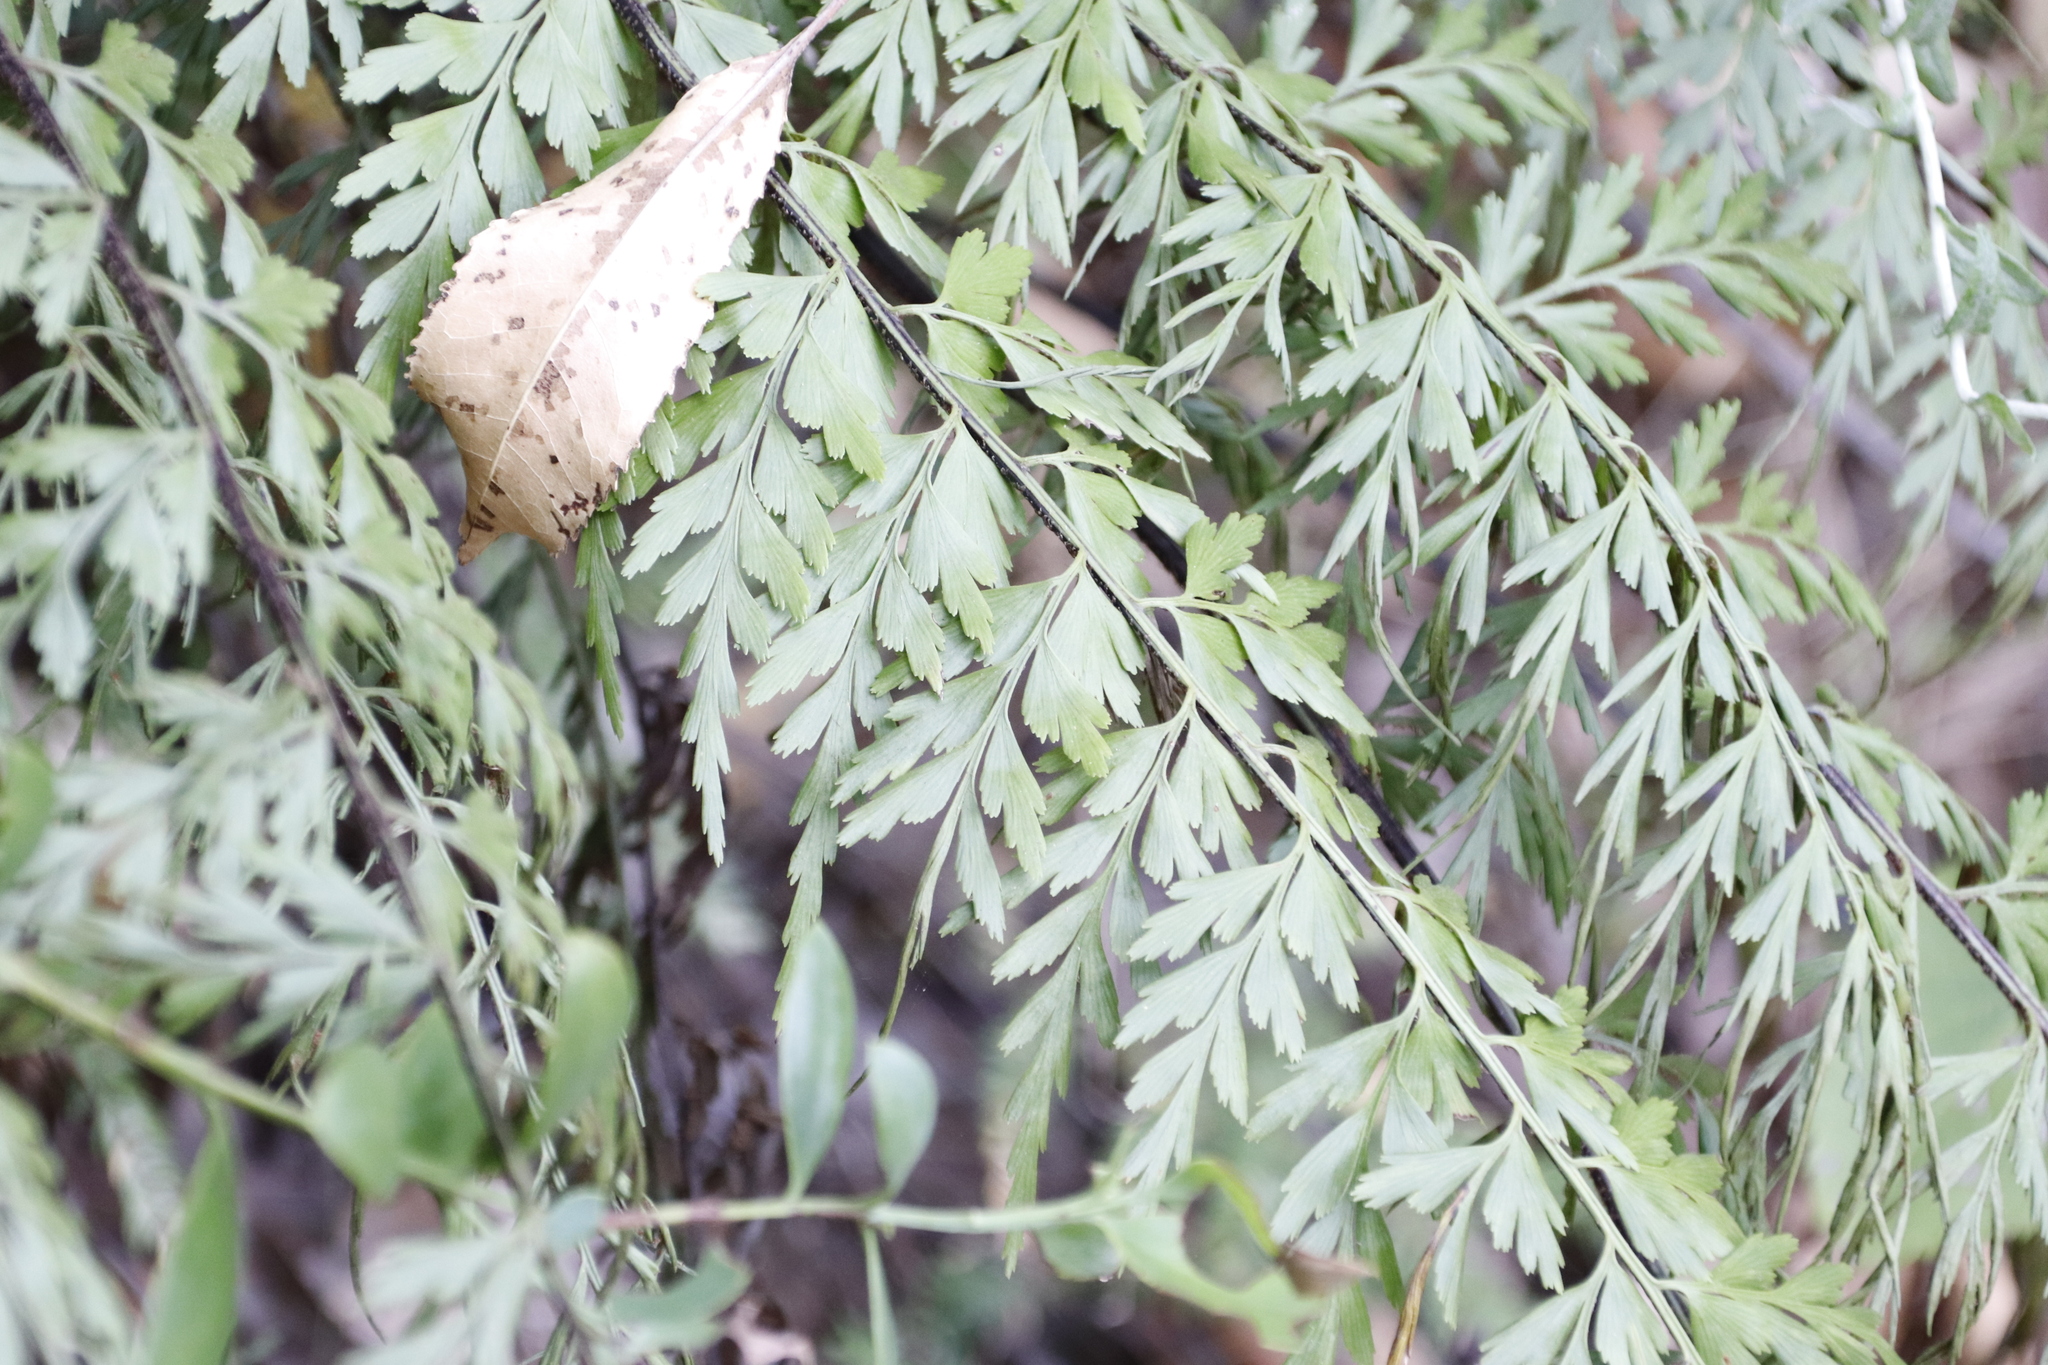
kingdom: Plantae
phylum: Tracheophyta
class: Polypodiopsida
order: Polypodiales
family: Aspleniaceae
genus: Asplenium
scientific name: Asplenium aethiopicum
